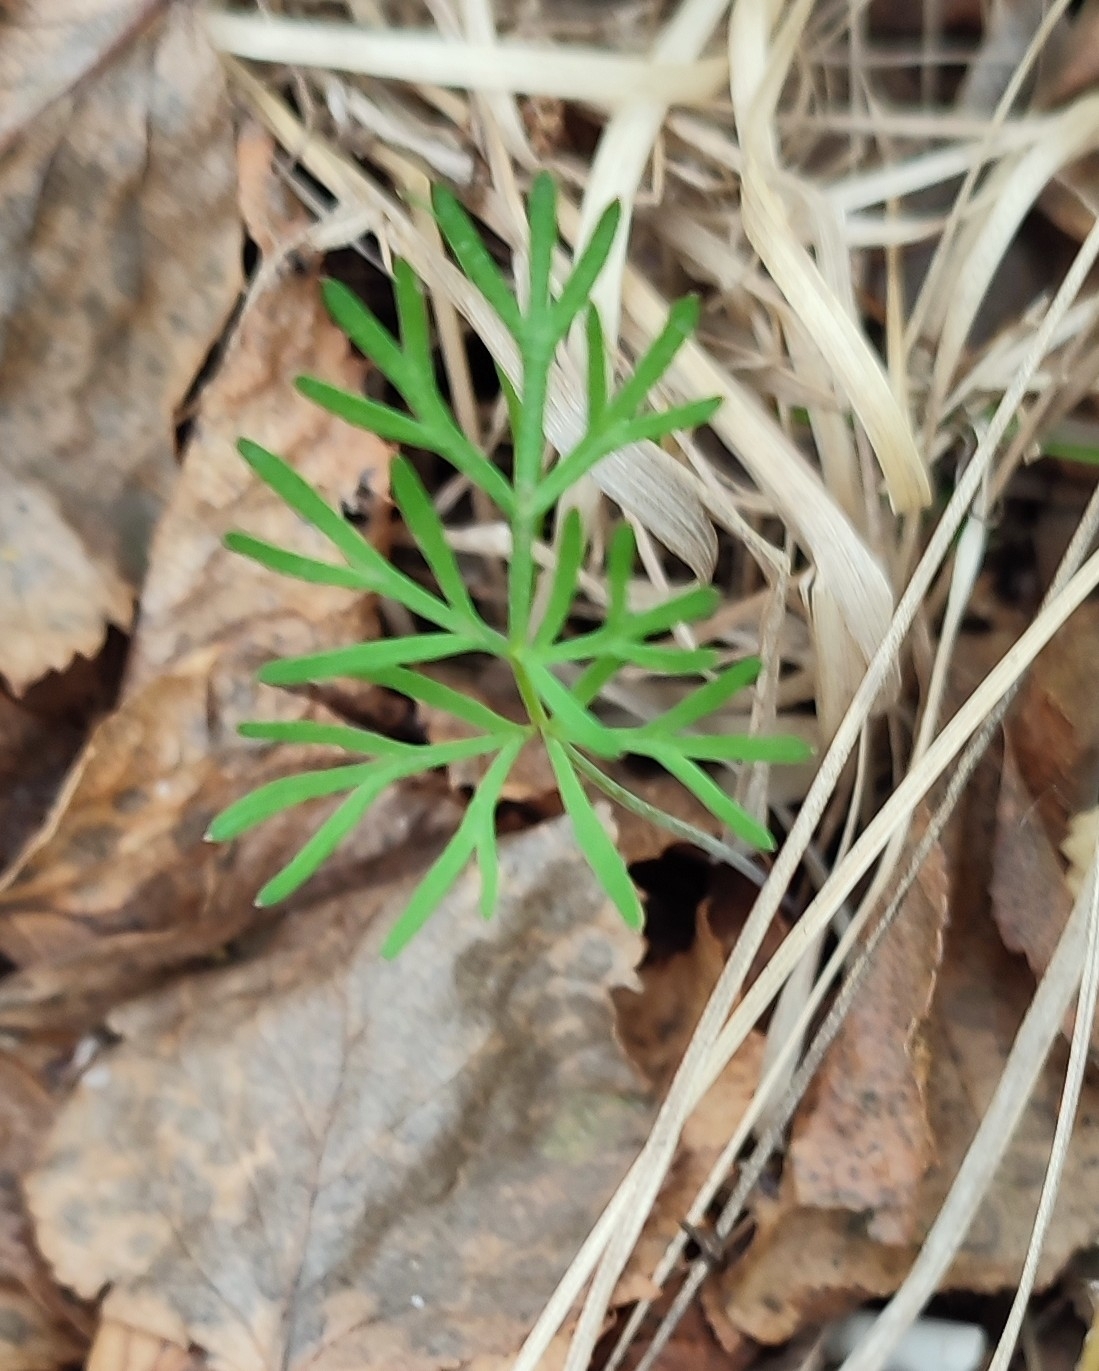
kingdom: Plantae
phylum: Tracheophyta
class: Magnoliopsida
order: Apiales
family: Apiaceae
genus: Kadenia
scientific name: Kadenia dubia
